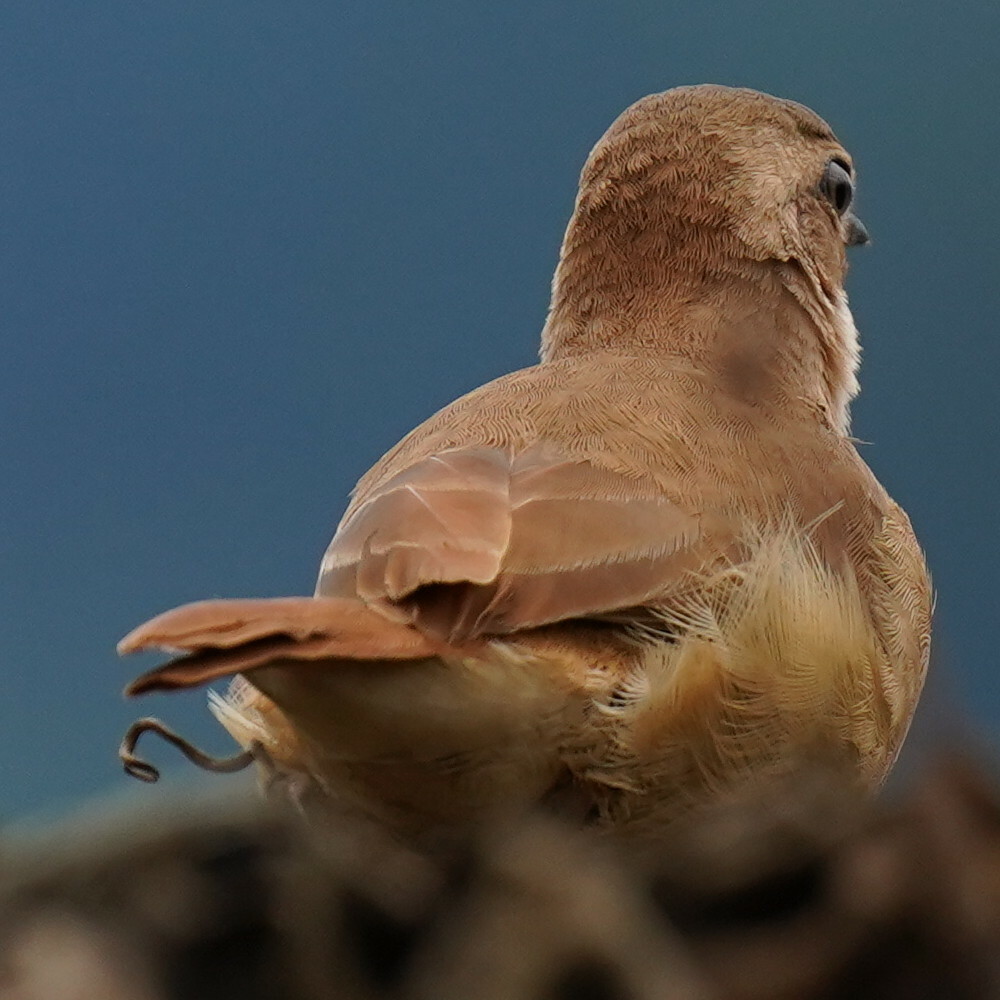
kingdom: Animalia
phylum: Chordata
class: Aves
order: Passeriformes
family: Furnariidae
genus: Furnarius
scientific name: Furnarius rufus
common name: Rufous hornero
